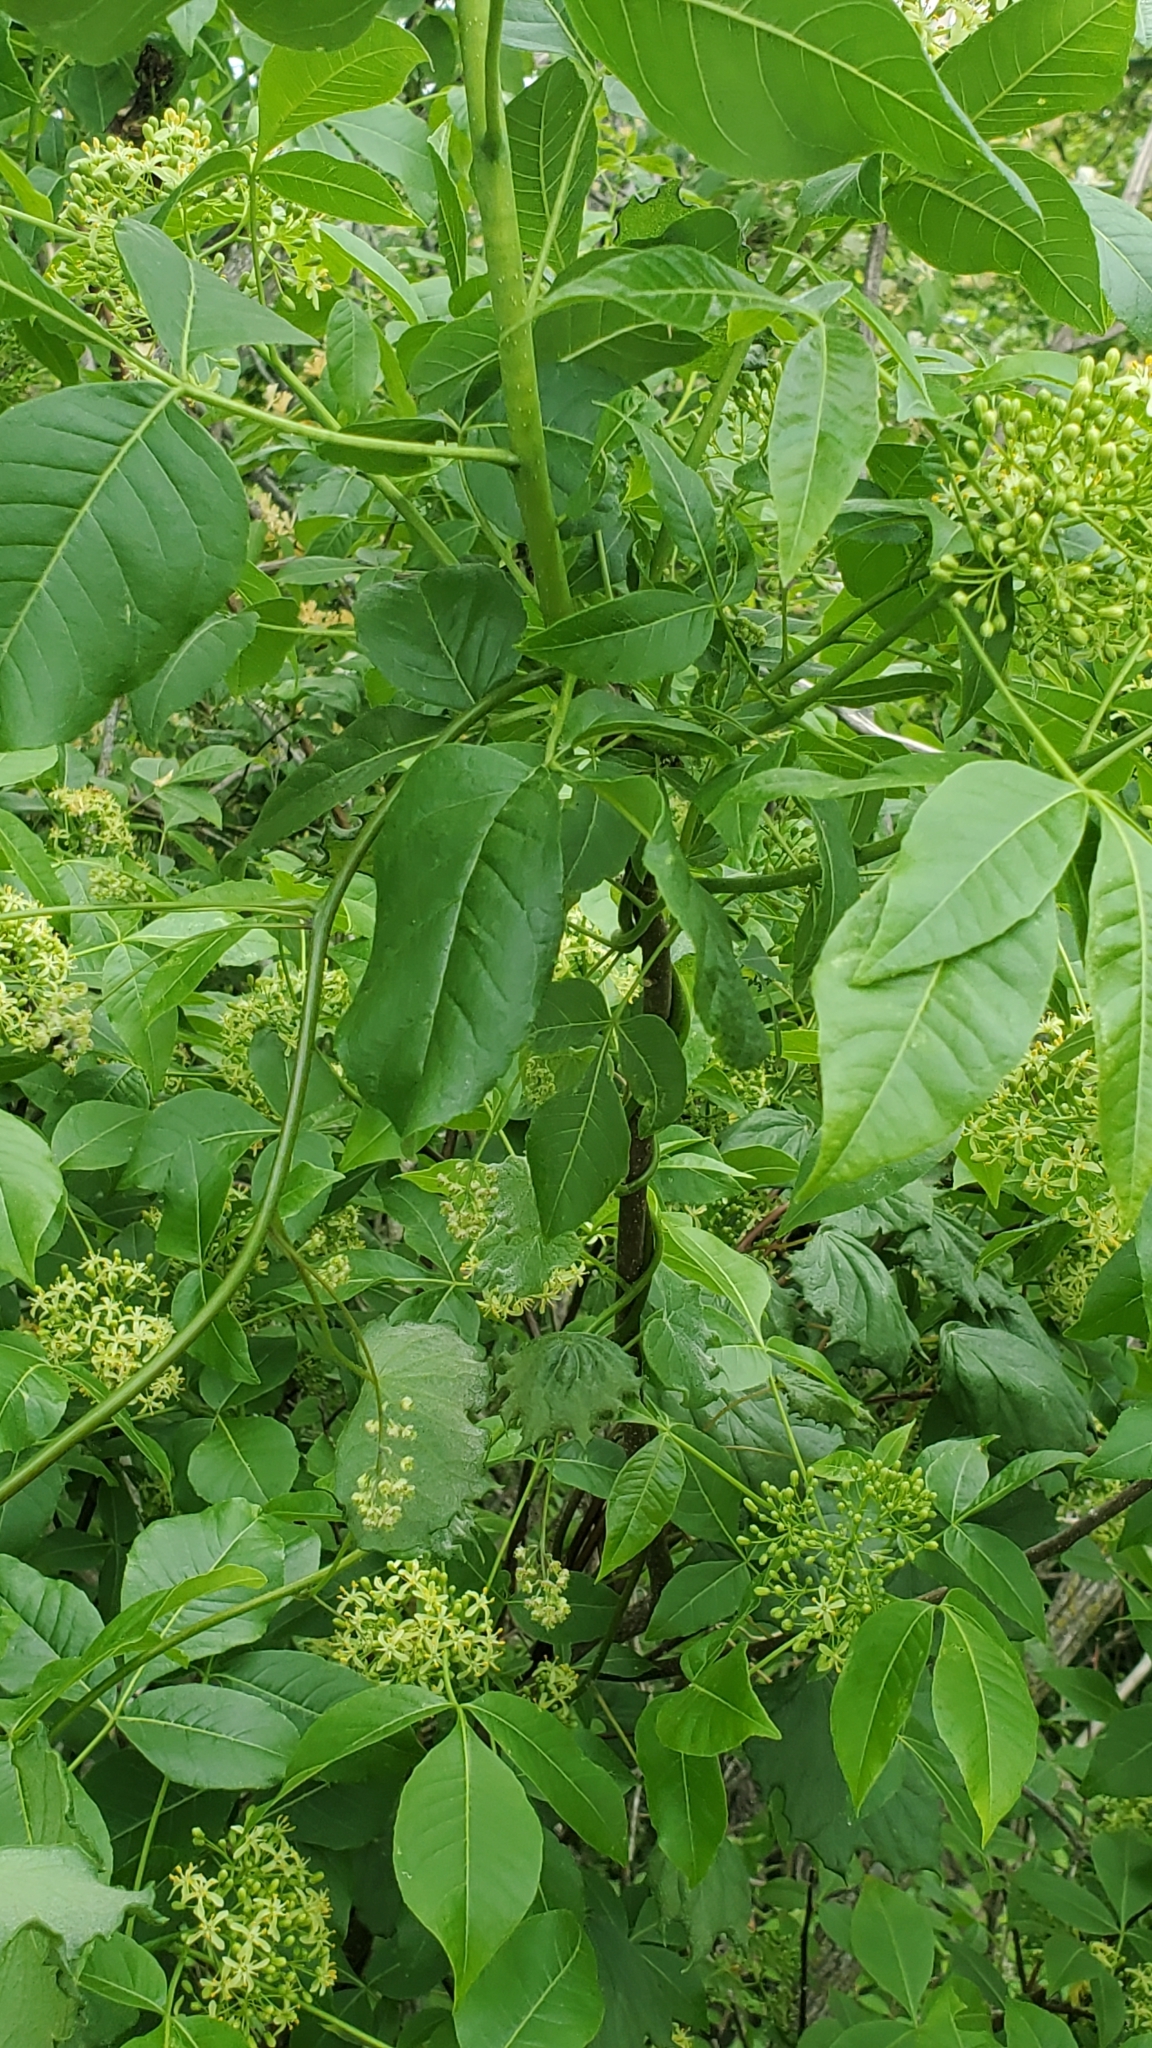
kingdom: Plantae
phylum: Tracheophyta
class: Magnoliopsida
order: Sapindales
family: Rutaceae
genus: Ptelea
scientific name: Ptelea trifoliata
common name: Common hop-tree
